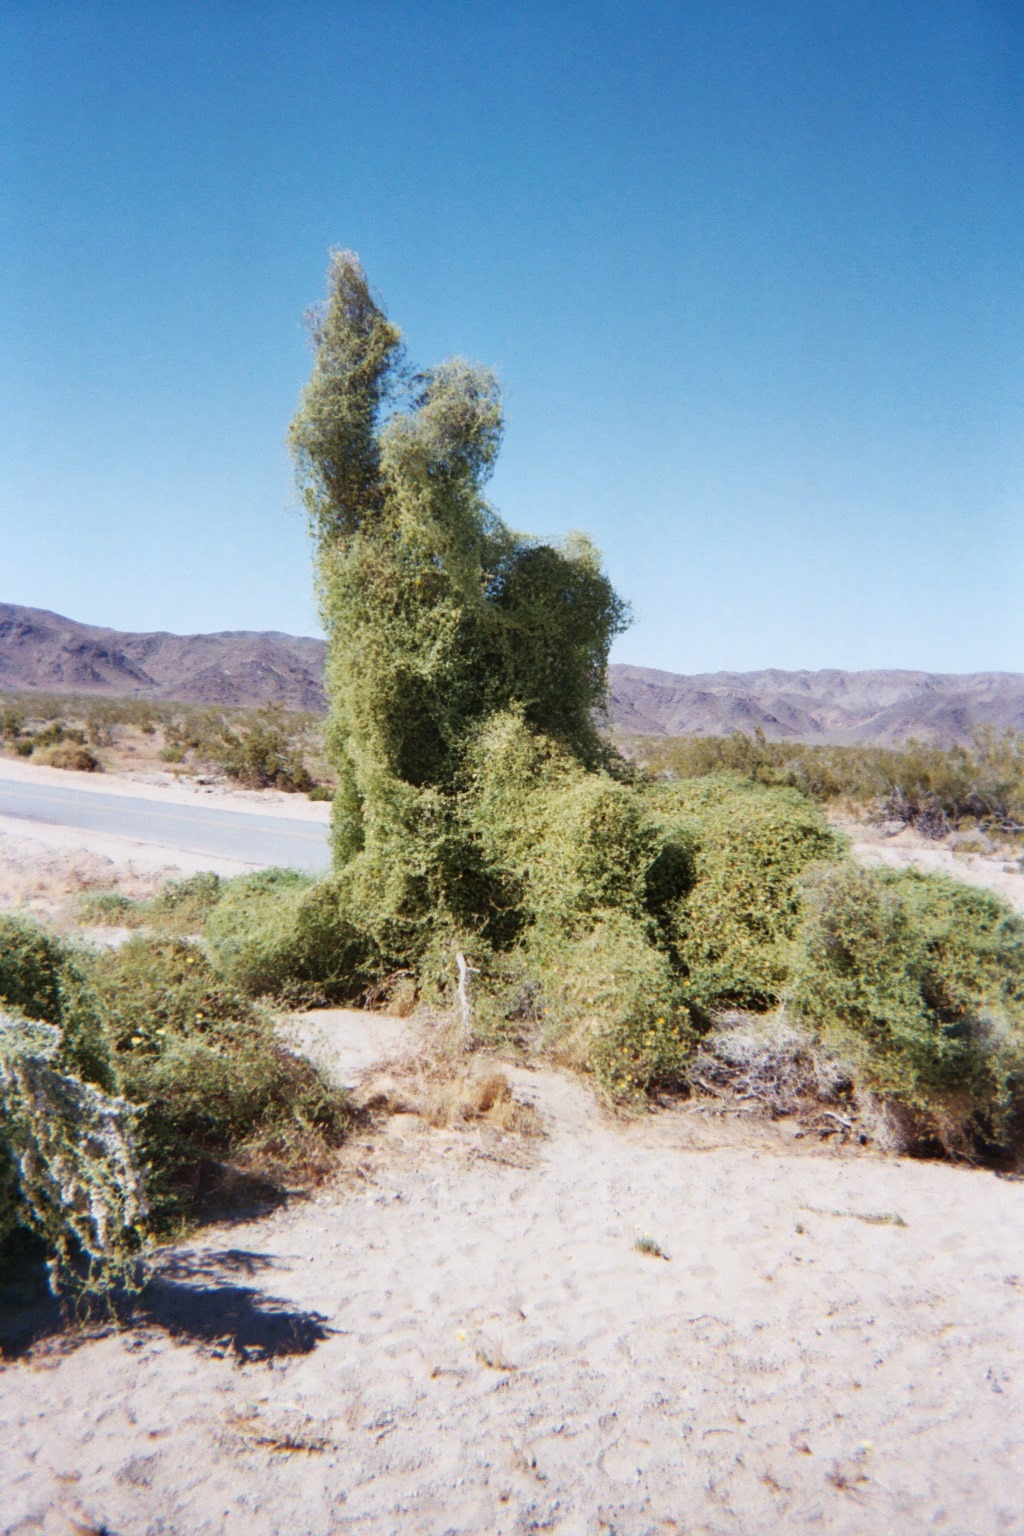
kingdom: Plantae
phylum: Tracheophyta
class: Magnoliopsida
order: Cucurbitales
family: Cucurbitaceae
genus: Echinopepon
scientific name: Echinopepon bigelovii
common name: Desert starvine
